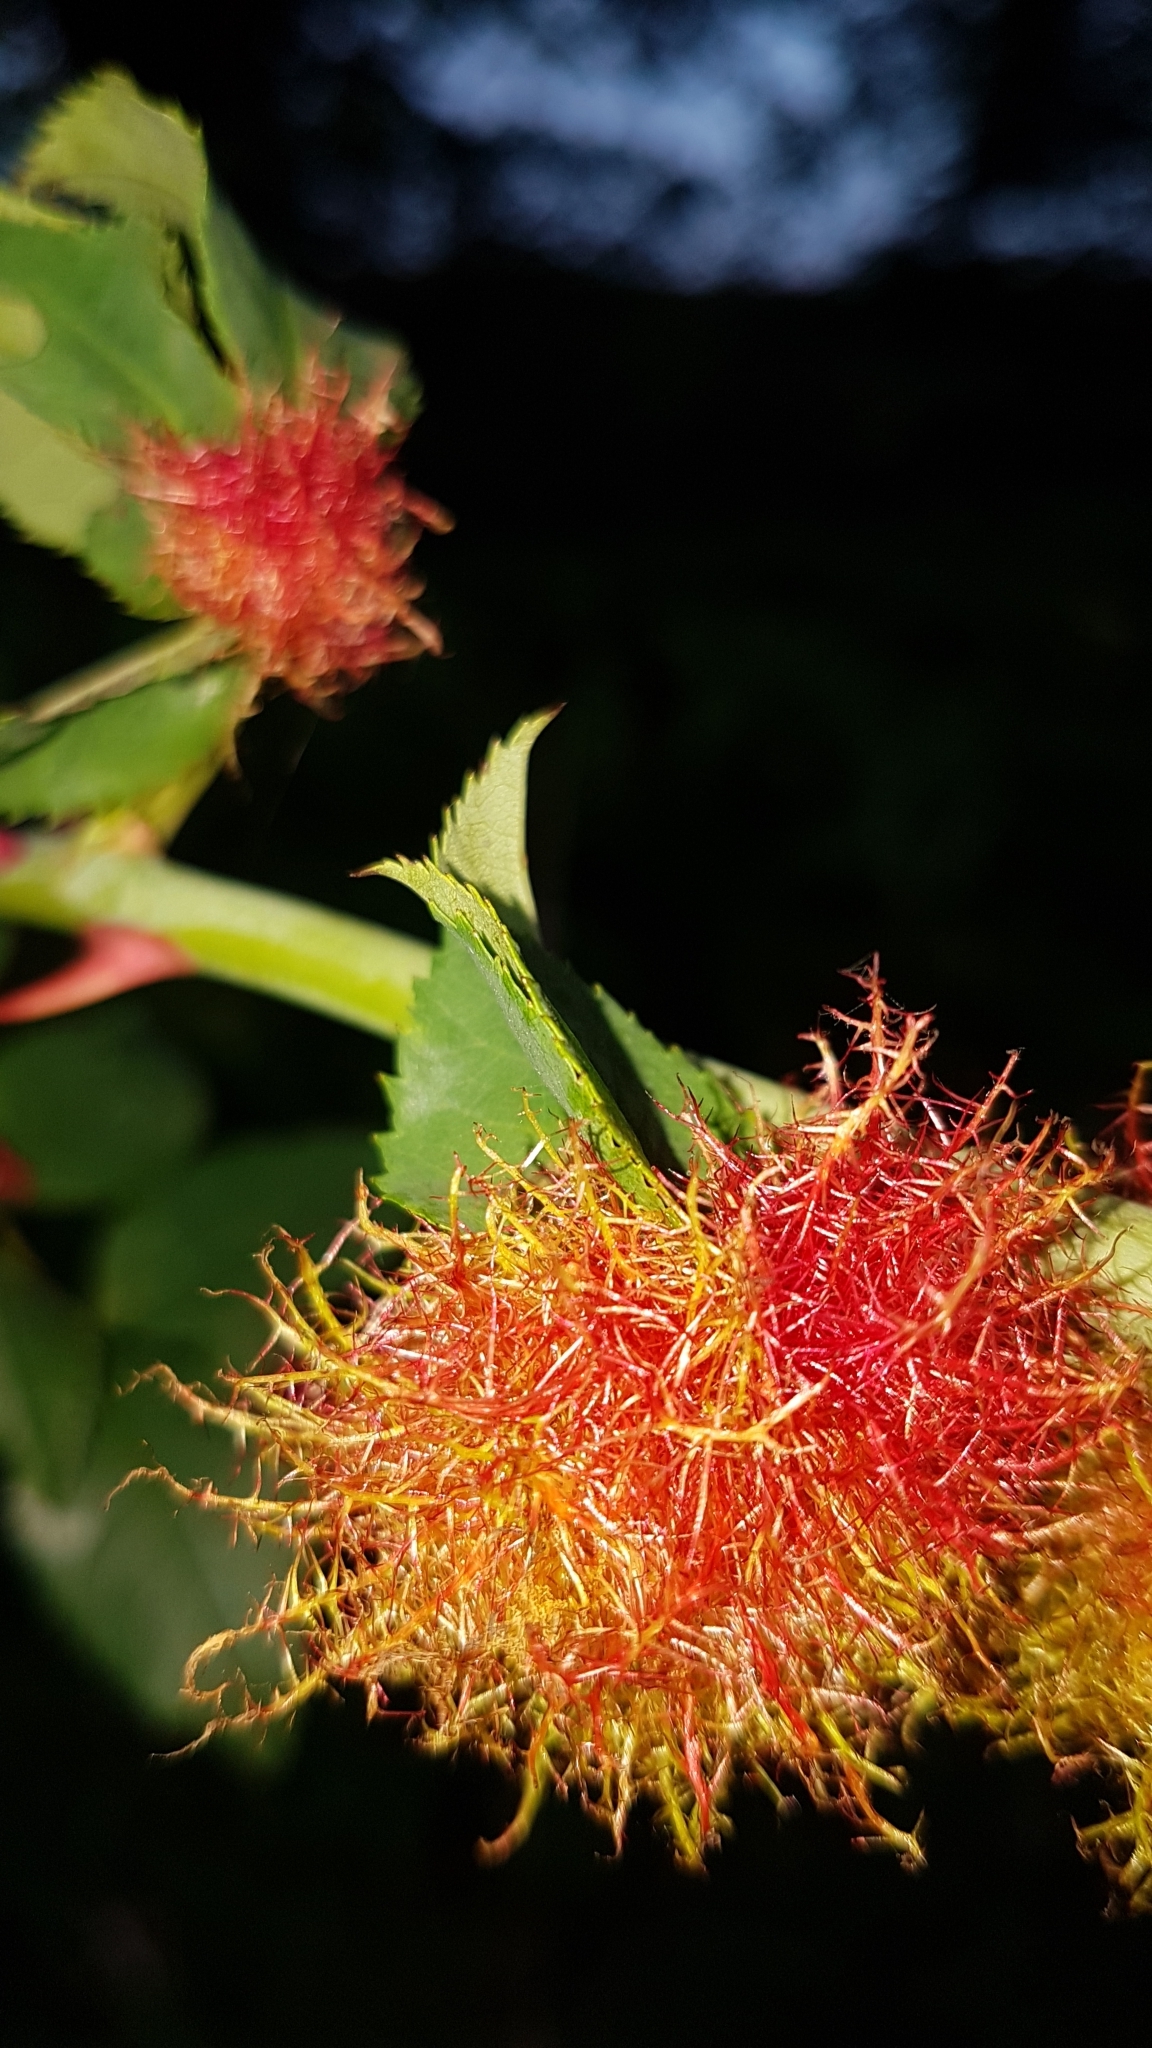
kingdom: Animalia
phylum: Arthropoda
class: Insecta
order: Hymenoptera
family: Cynipidae
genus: Diplolepis
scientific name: Diplolepis rosae
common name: Bedeguar gall
